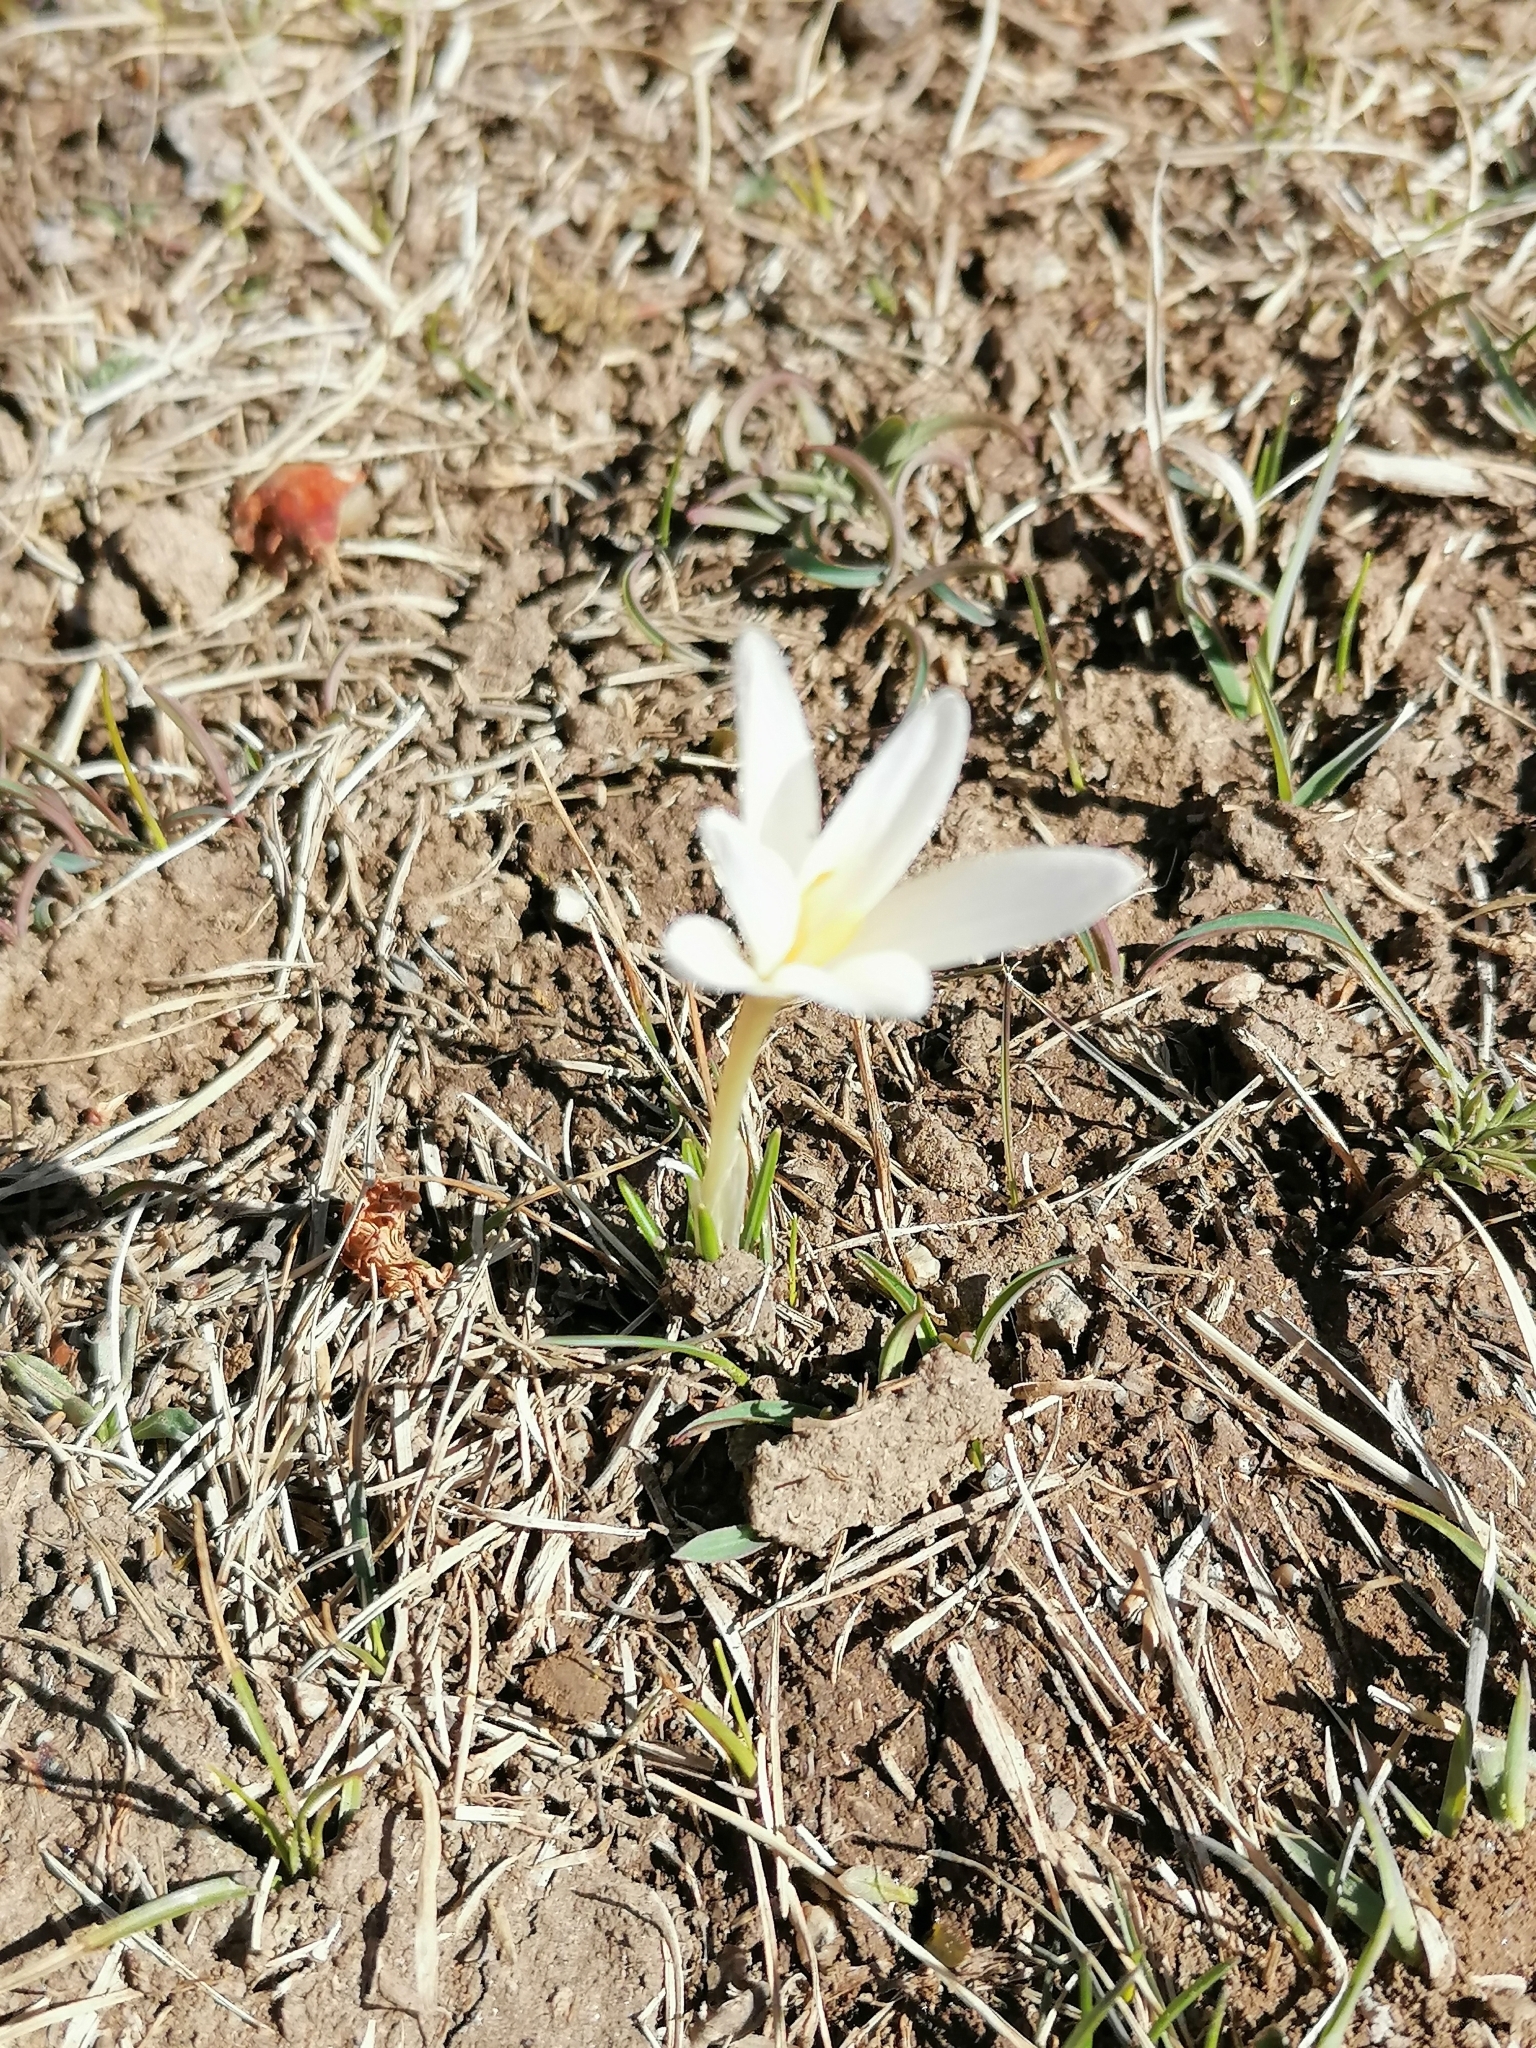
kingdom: Plantae
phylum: Tracheophyta
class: Liliopsida
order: Asparagales
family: Iridaceae
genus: Crocus
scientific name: Crocus alatavicus
